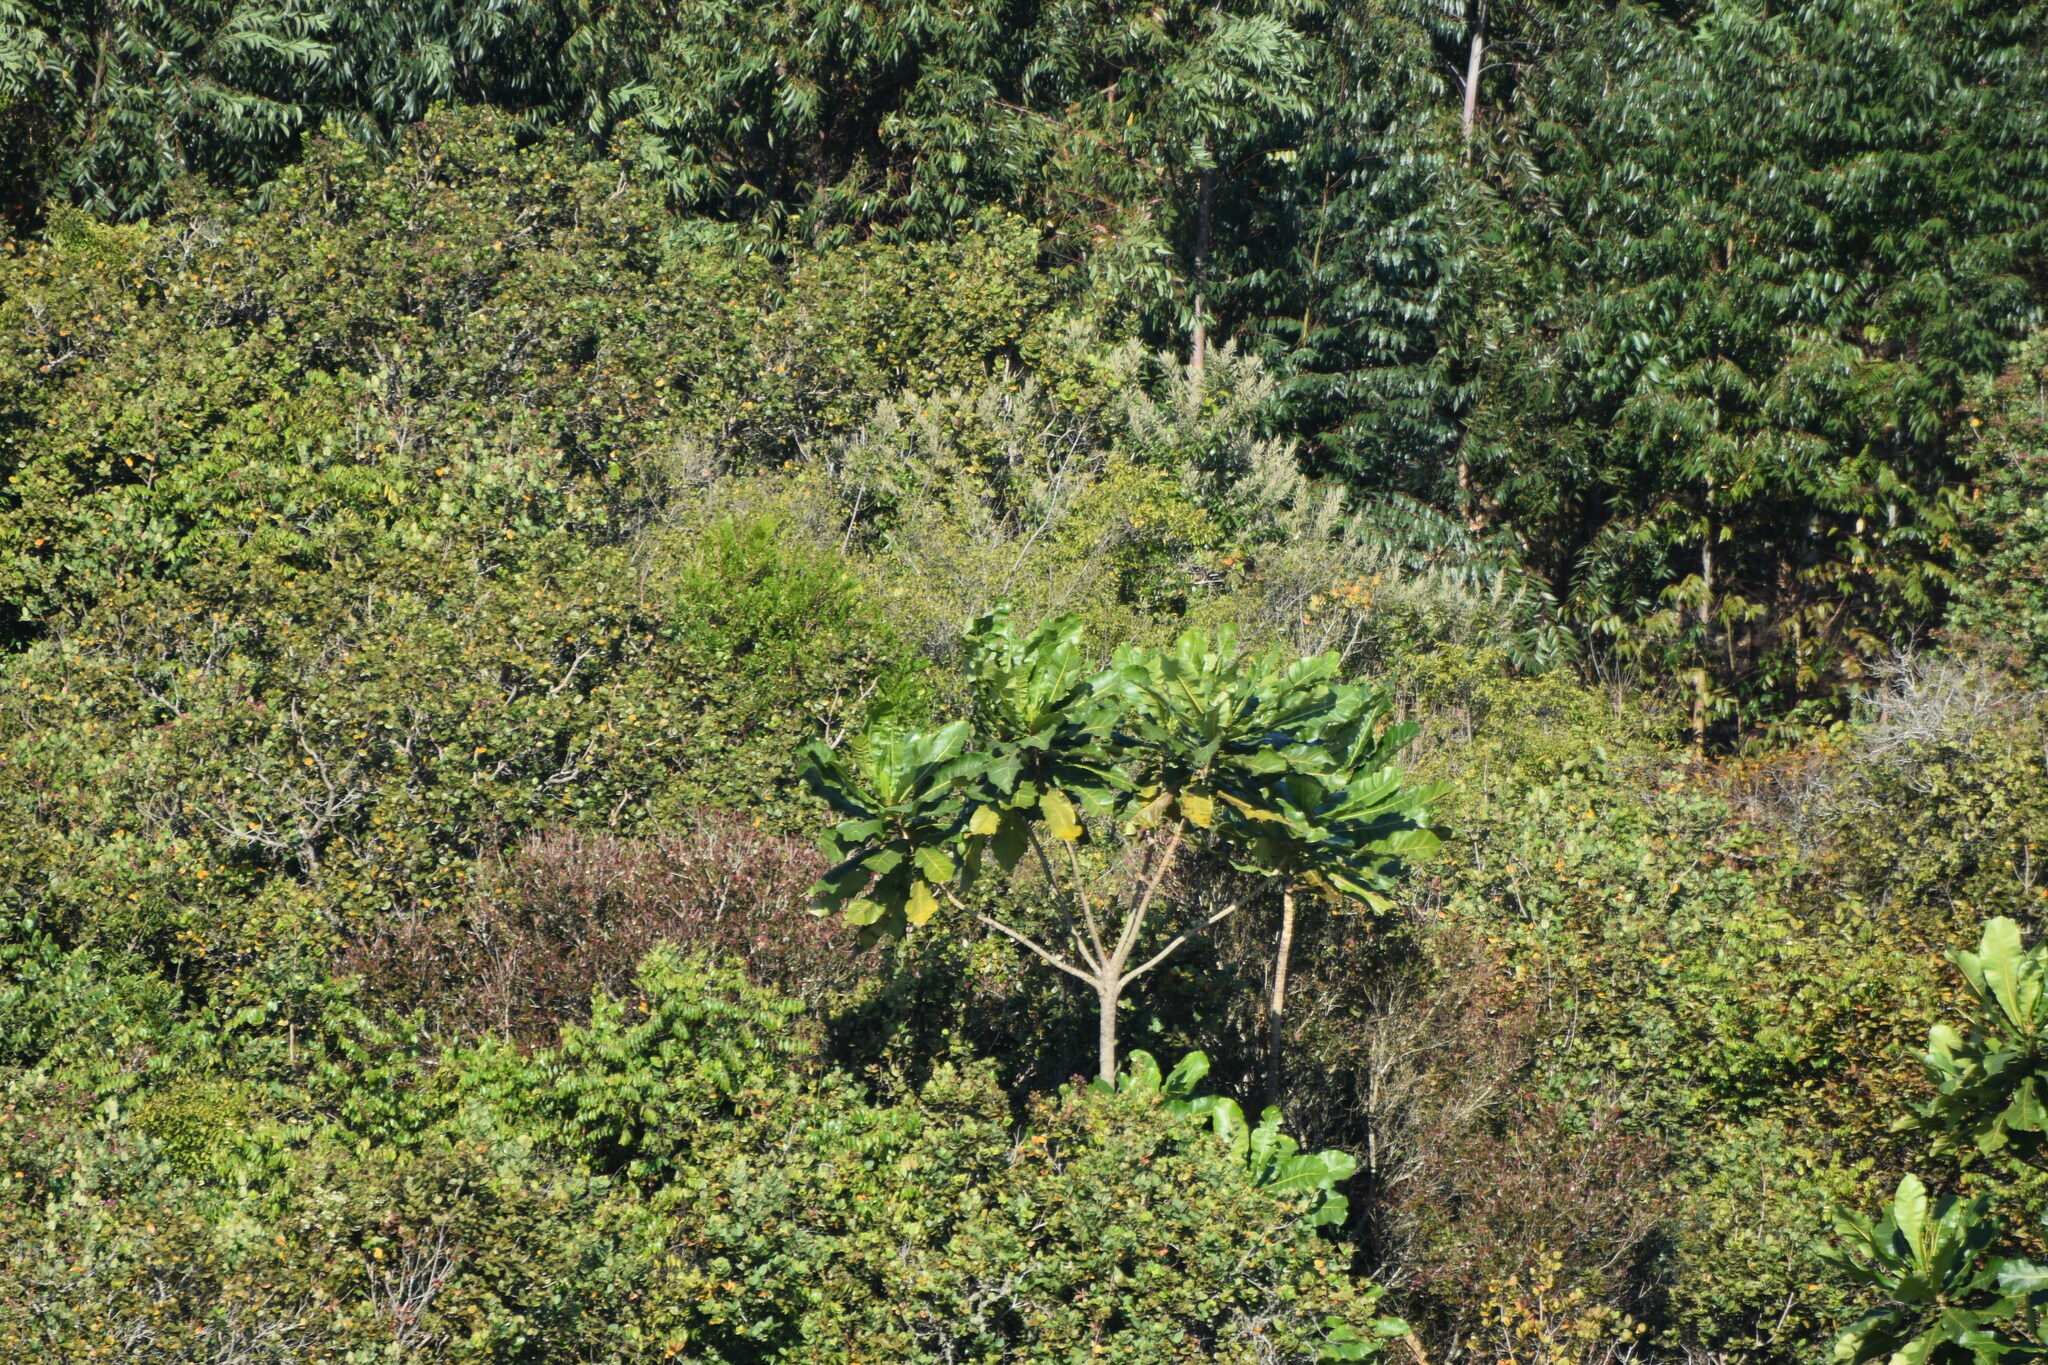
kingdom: Plantae
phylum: Tracheophyta
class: Magnoliopsida
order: Gentianales
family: Gentianaceae
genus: Anthocleista
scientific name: Anthocleista grandiflora
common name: Forest big-leaf
